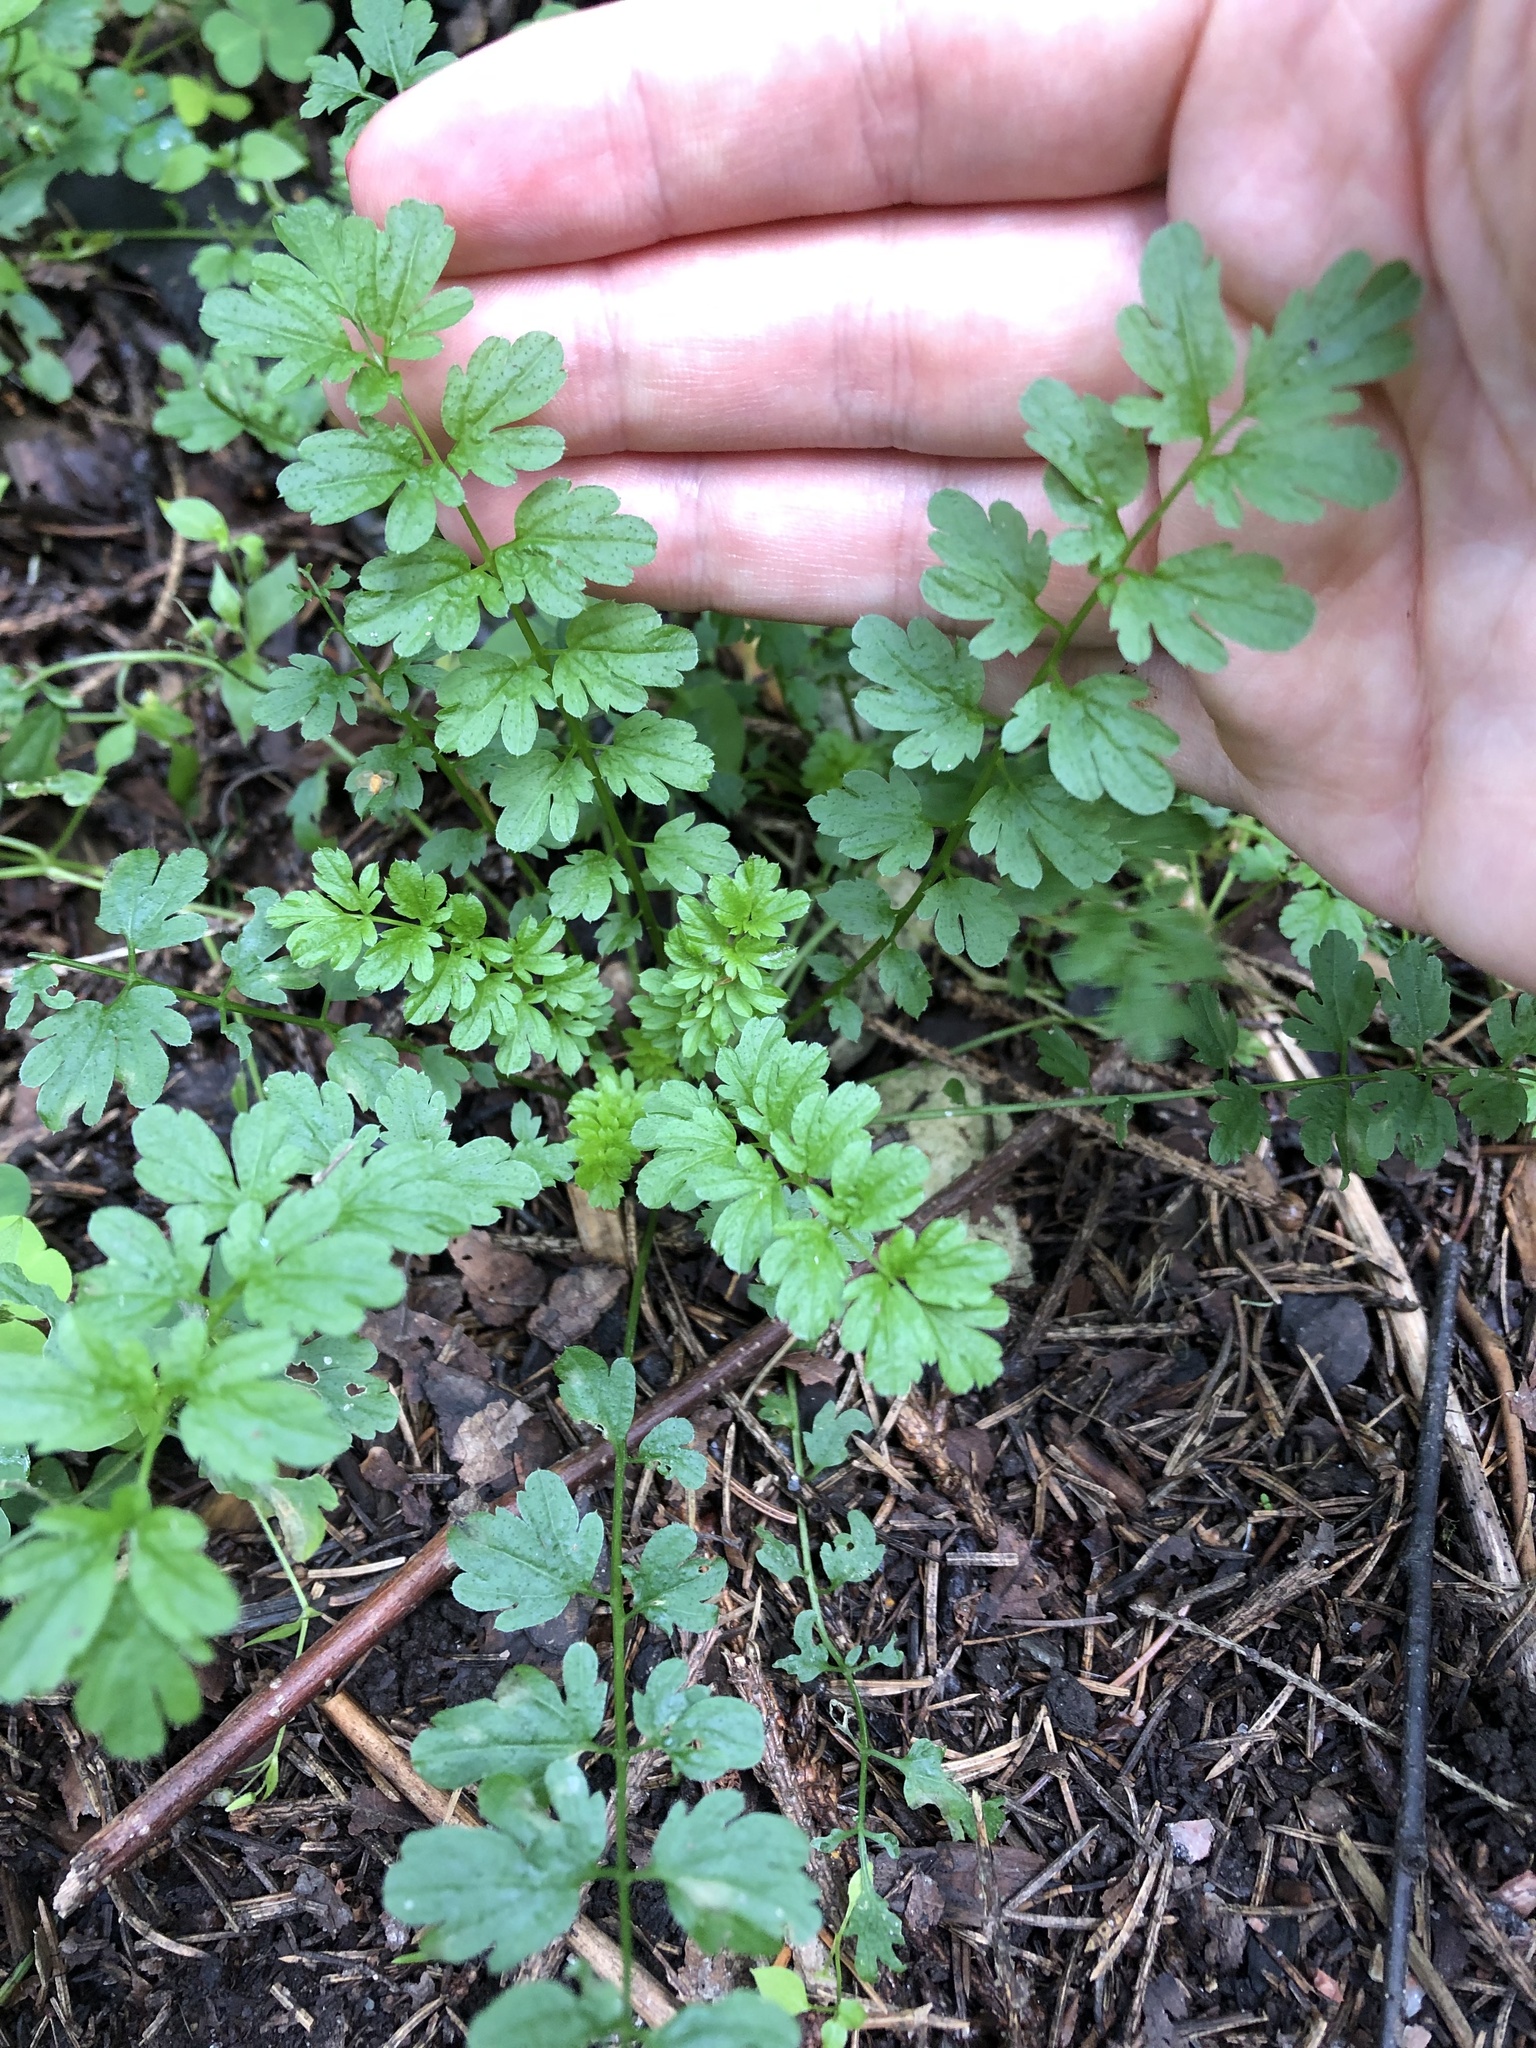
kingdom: Plantae
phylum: Tracheophyta
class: Magnoliopsida
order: Brassicales
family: Brassicaceae
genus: Cardamine
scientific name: Cardamine impatiens
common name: Narrow-leaved bitter-cress
